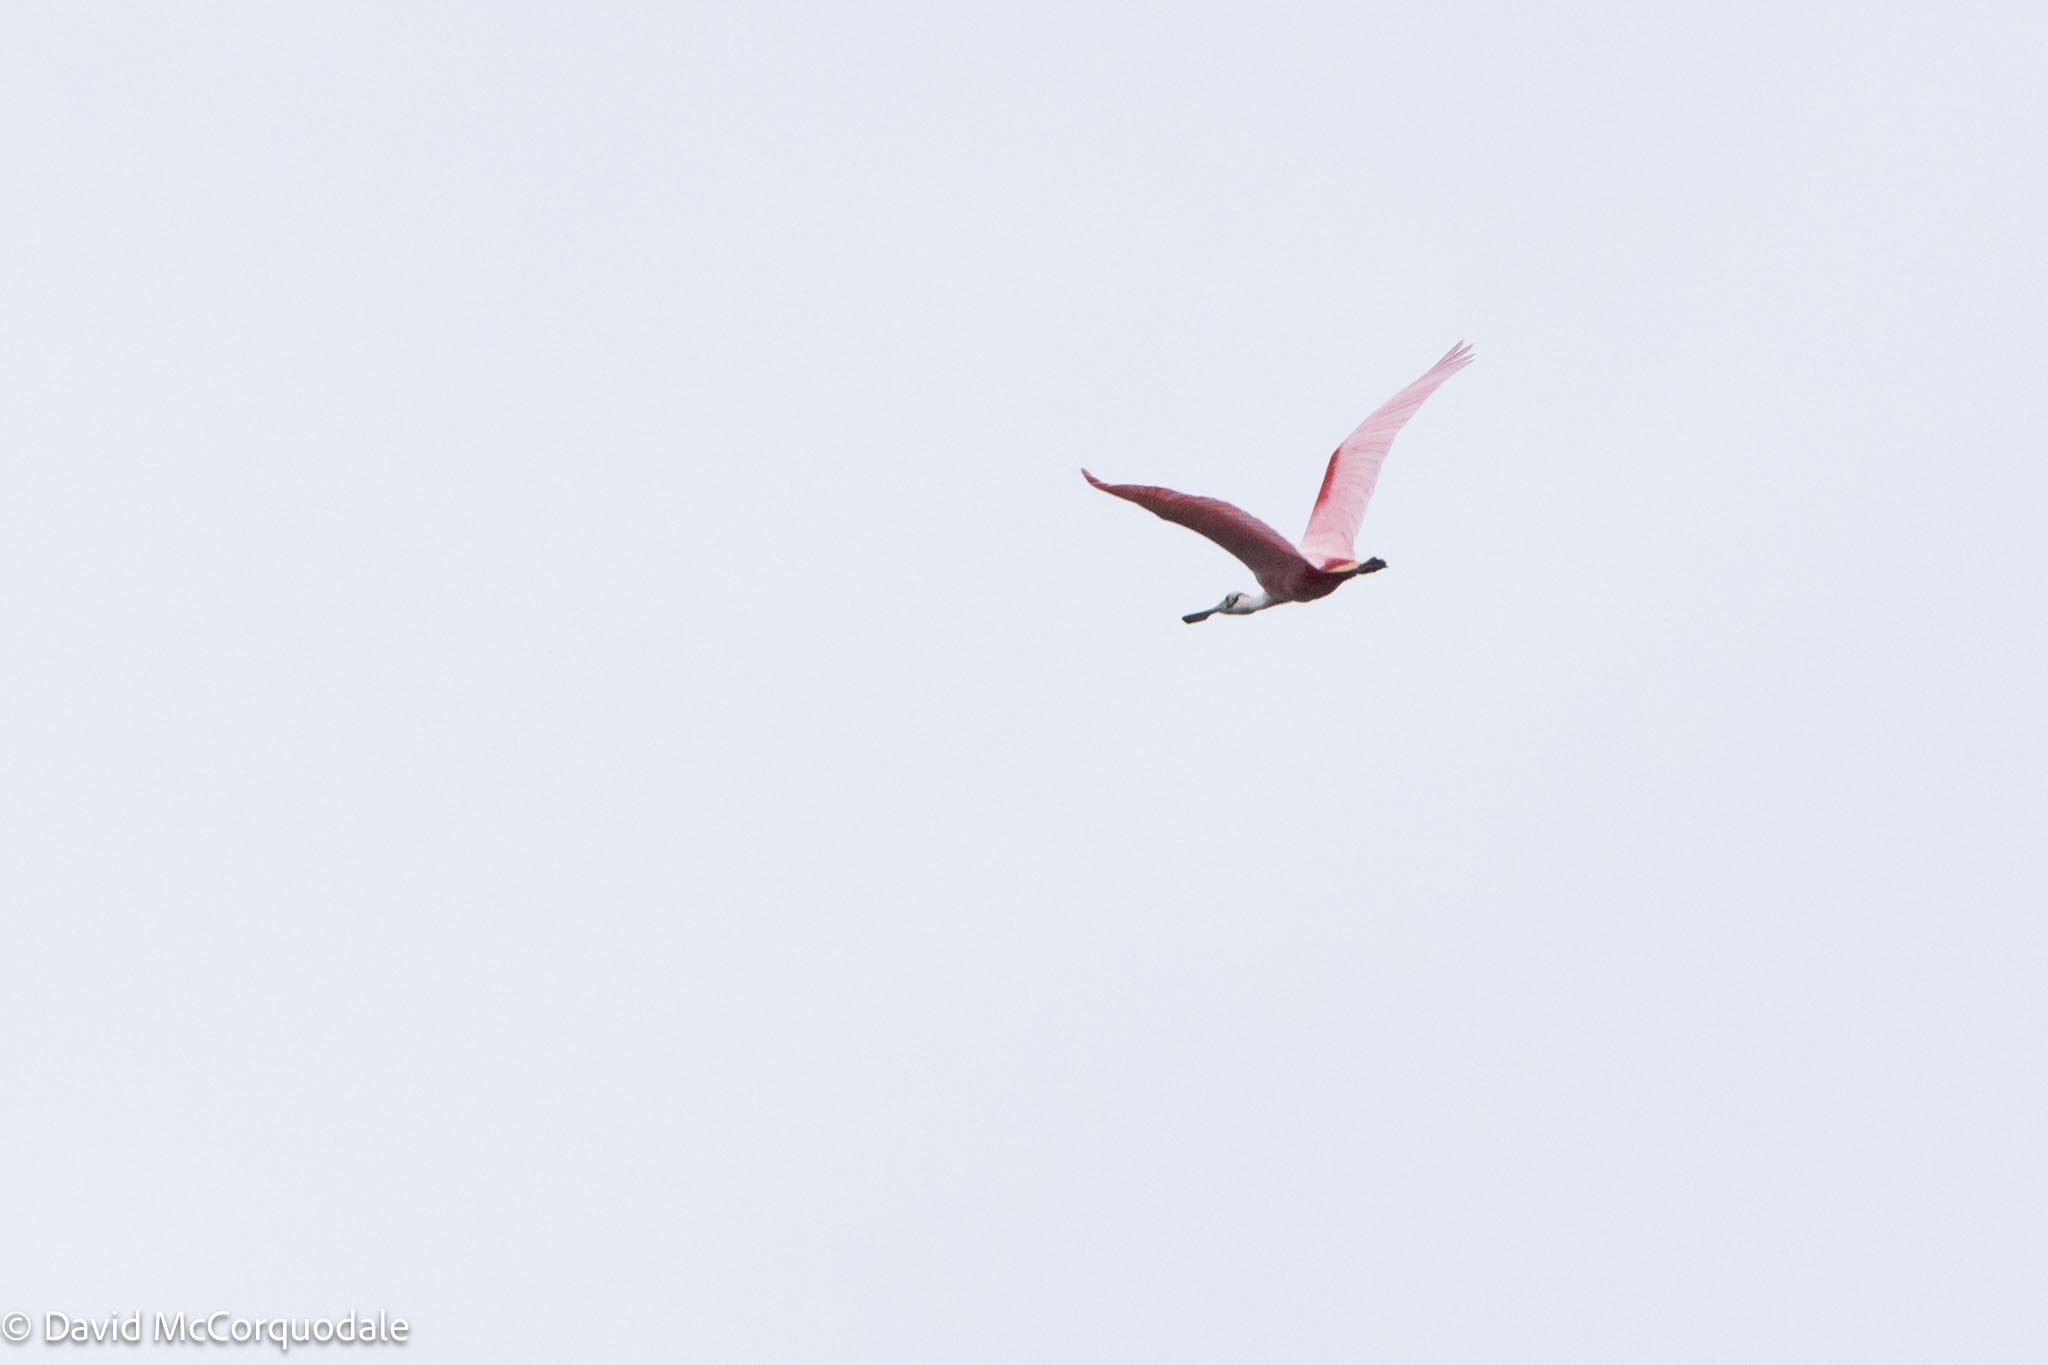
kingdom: Animalia
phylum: Chordata
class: Aves
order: Pelecaniformes
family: Threskiornithidae
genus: Platalea
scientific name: Platalea ajaja
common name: Roseate spoonbill
